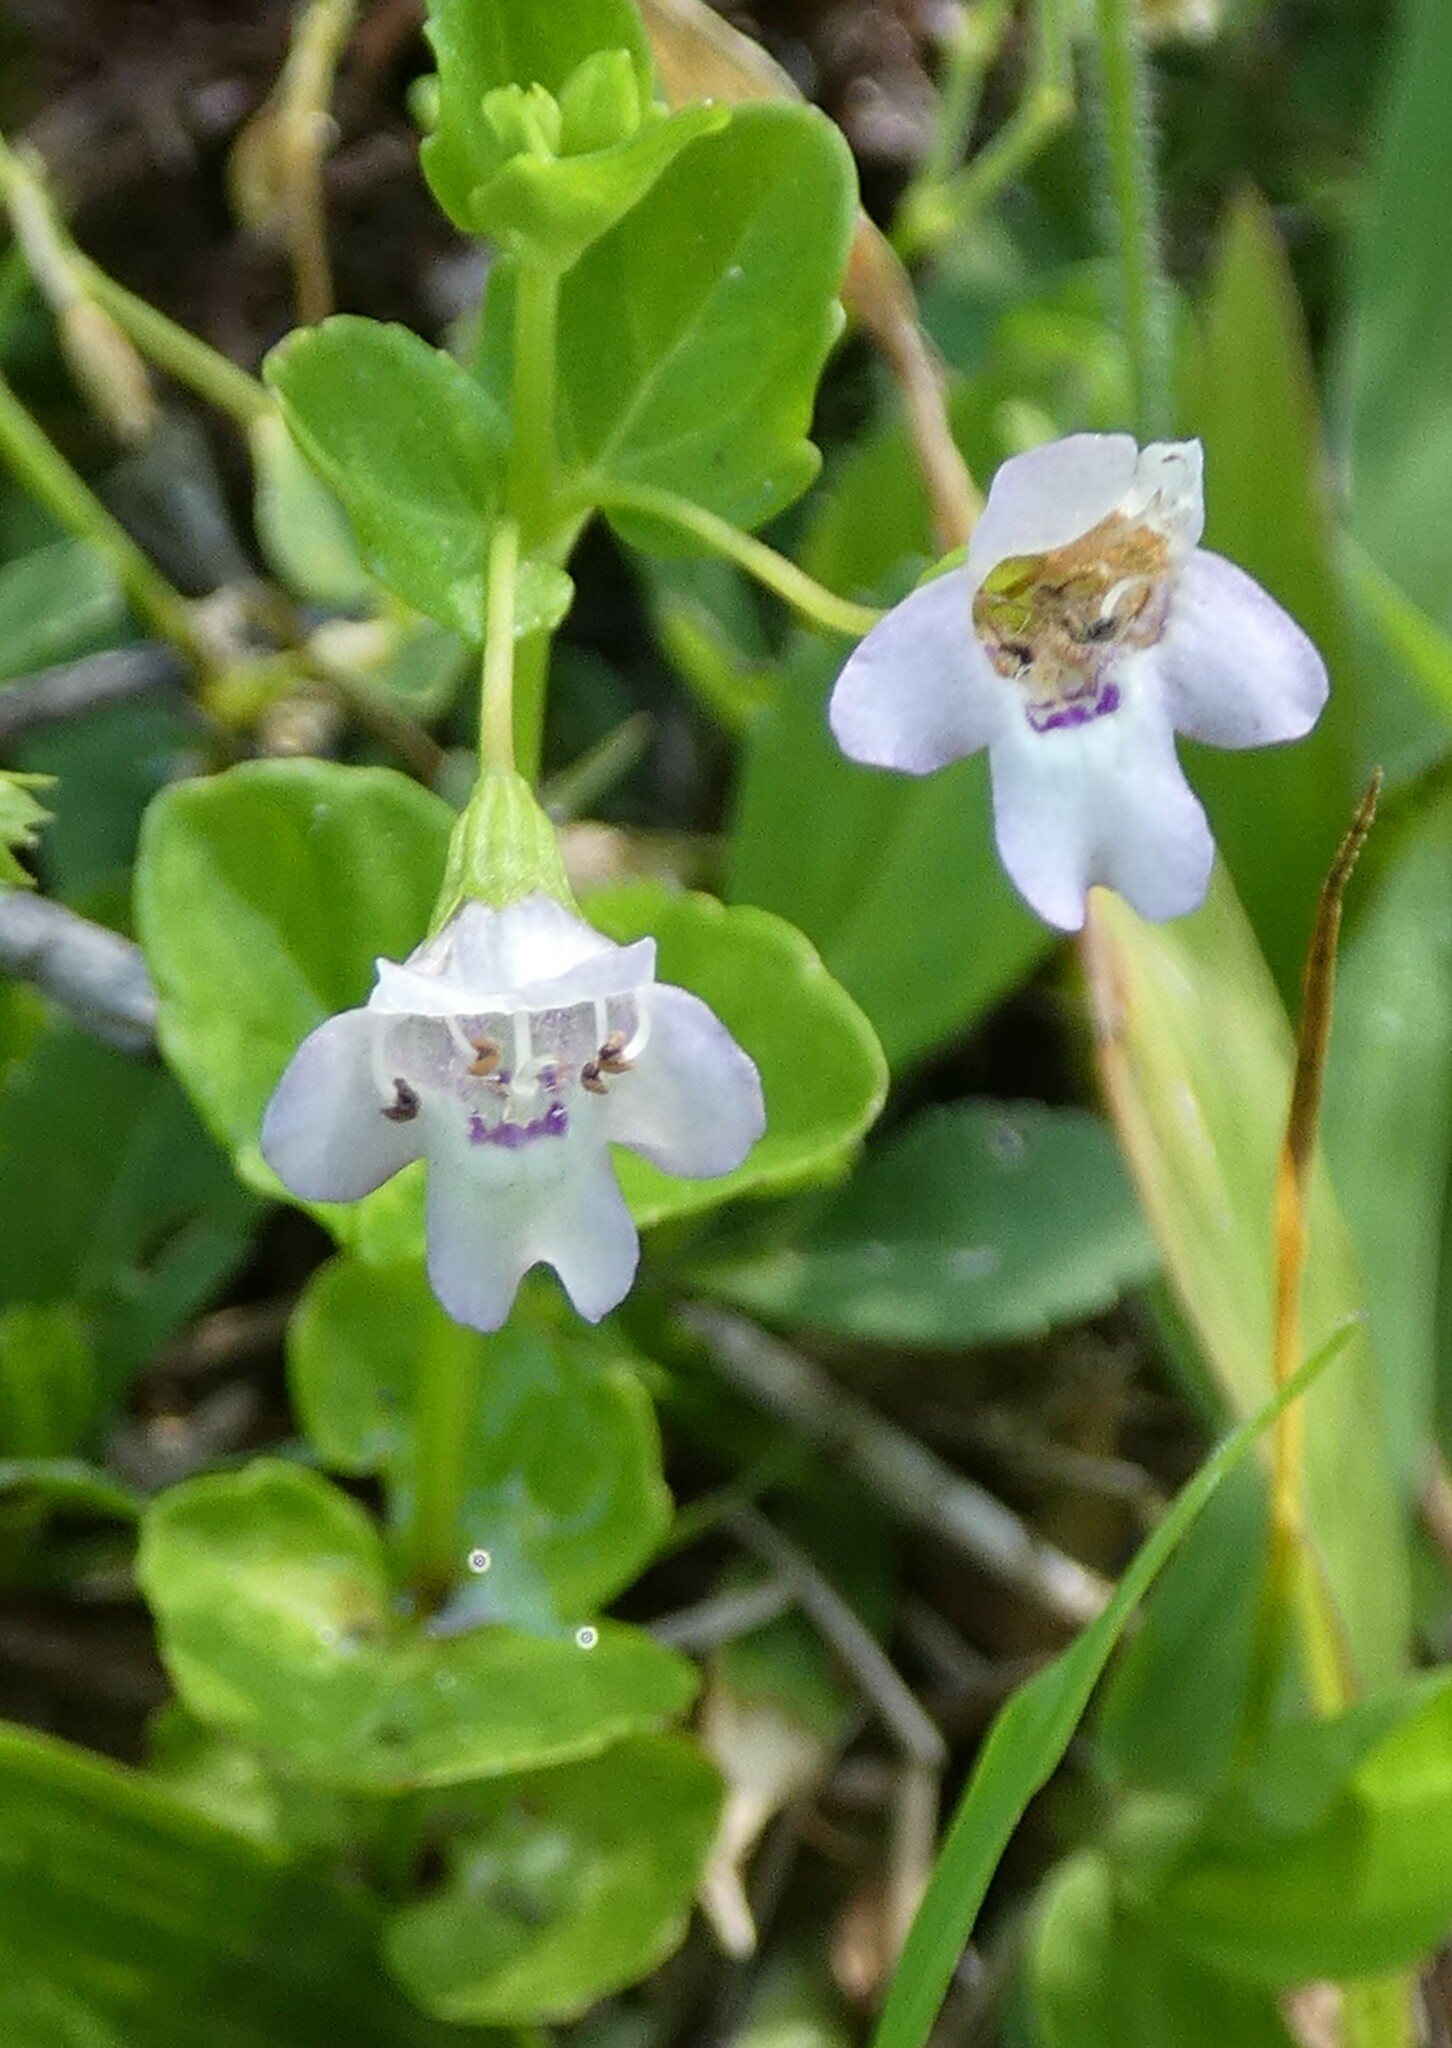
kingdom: Plantae
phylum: Tracheophyta
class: Magnoliopsida
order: Lamiales
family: Lamiaceae
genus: Clinopodium
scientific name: Clinopodium brownei
